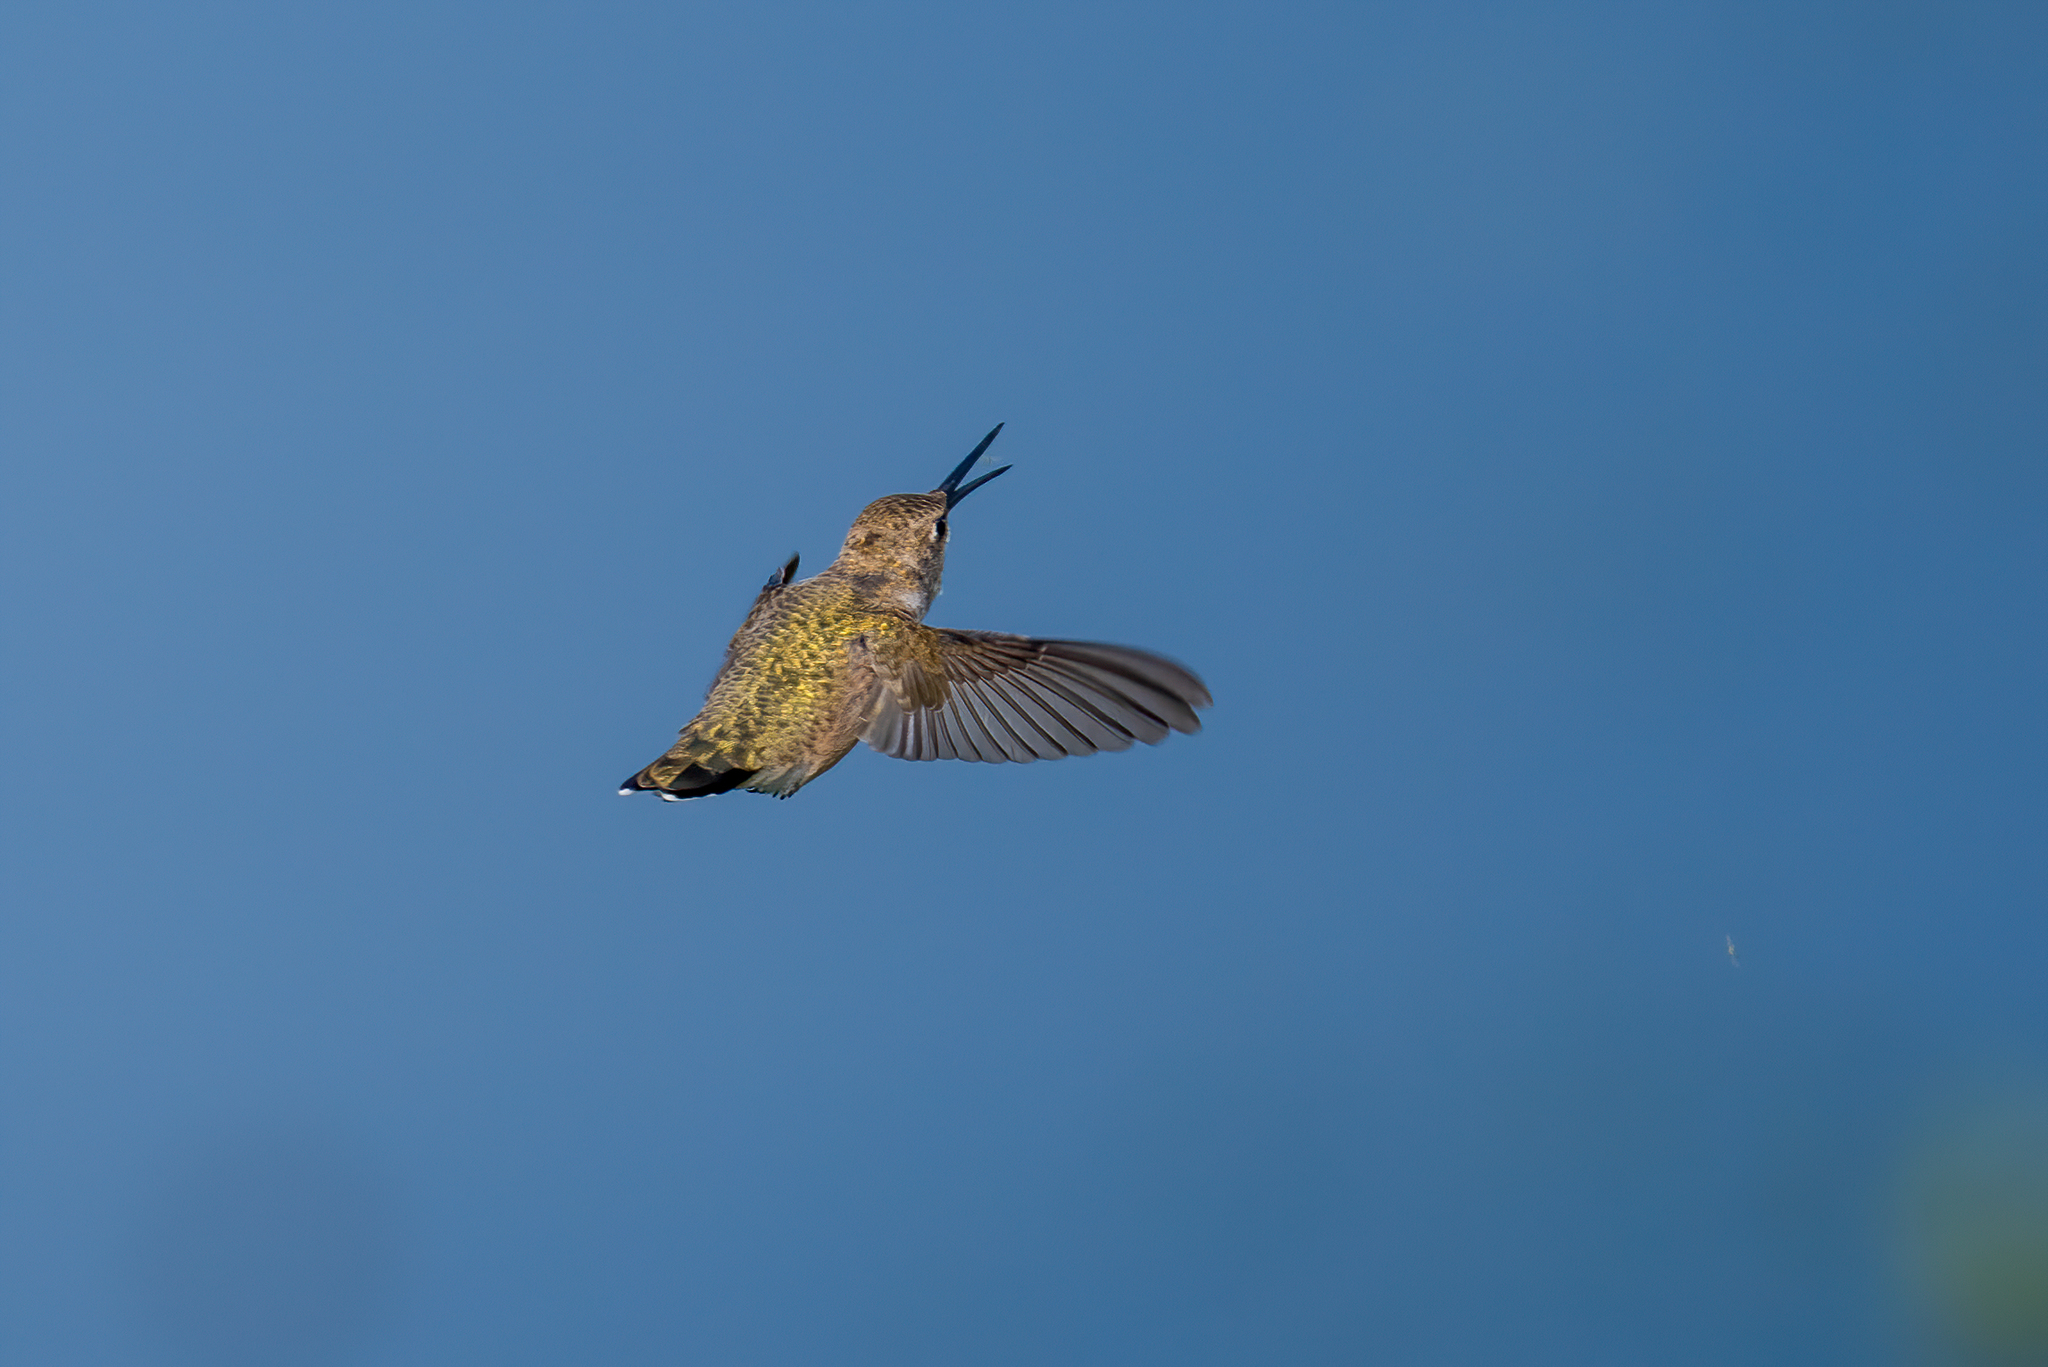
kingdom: Animalia
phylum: Chordata
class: Aves
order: Apodiformes
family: Trochilidae
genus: Archilochus
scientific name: Archilochus alexandri
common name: Black-chinned hummingbird
